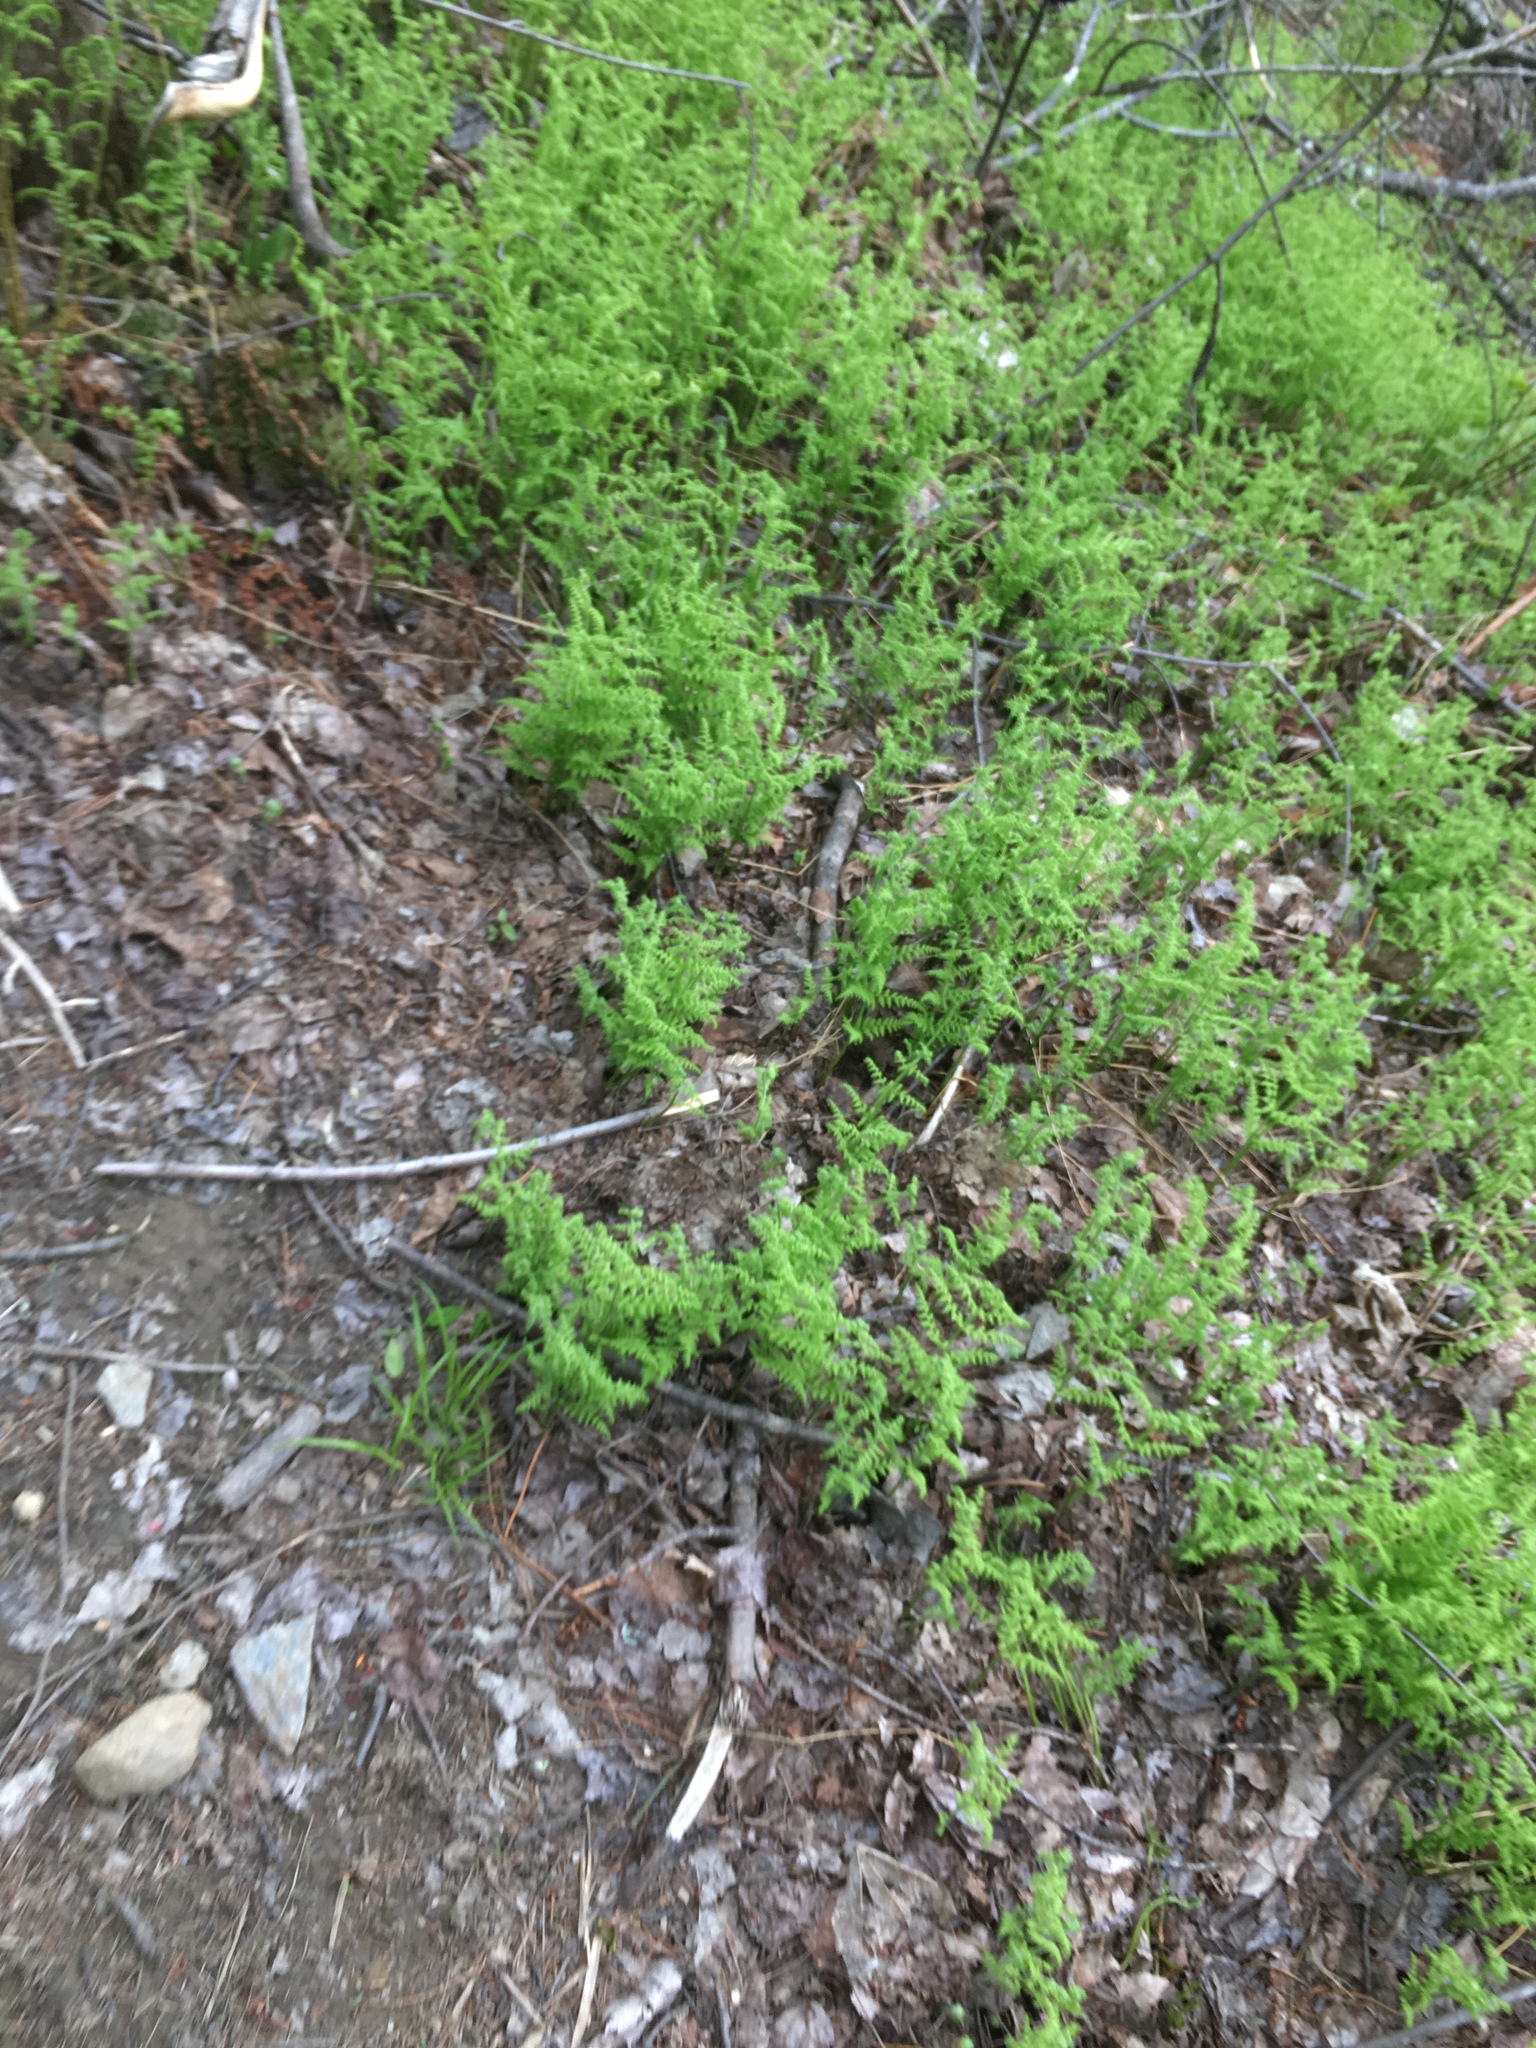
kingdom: Plantae
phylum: Tracheophyta
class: Polypodiopsida
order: Polypodiales
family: Dennstaedtiaceae
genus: Sitobolium
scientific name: Sitobolium punctilobum
